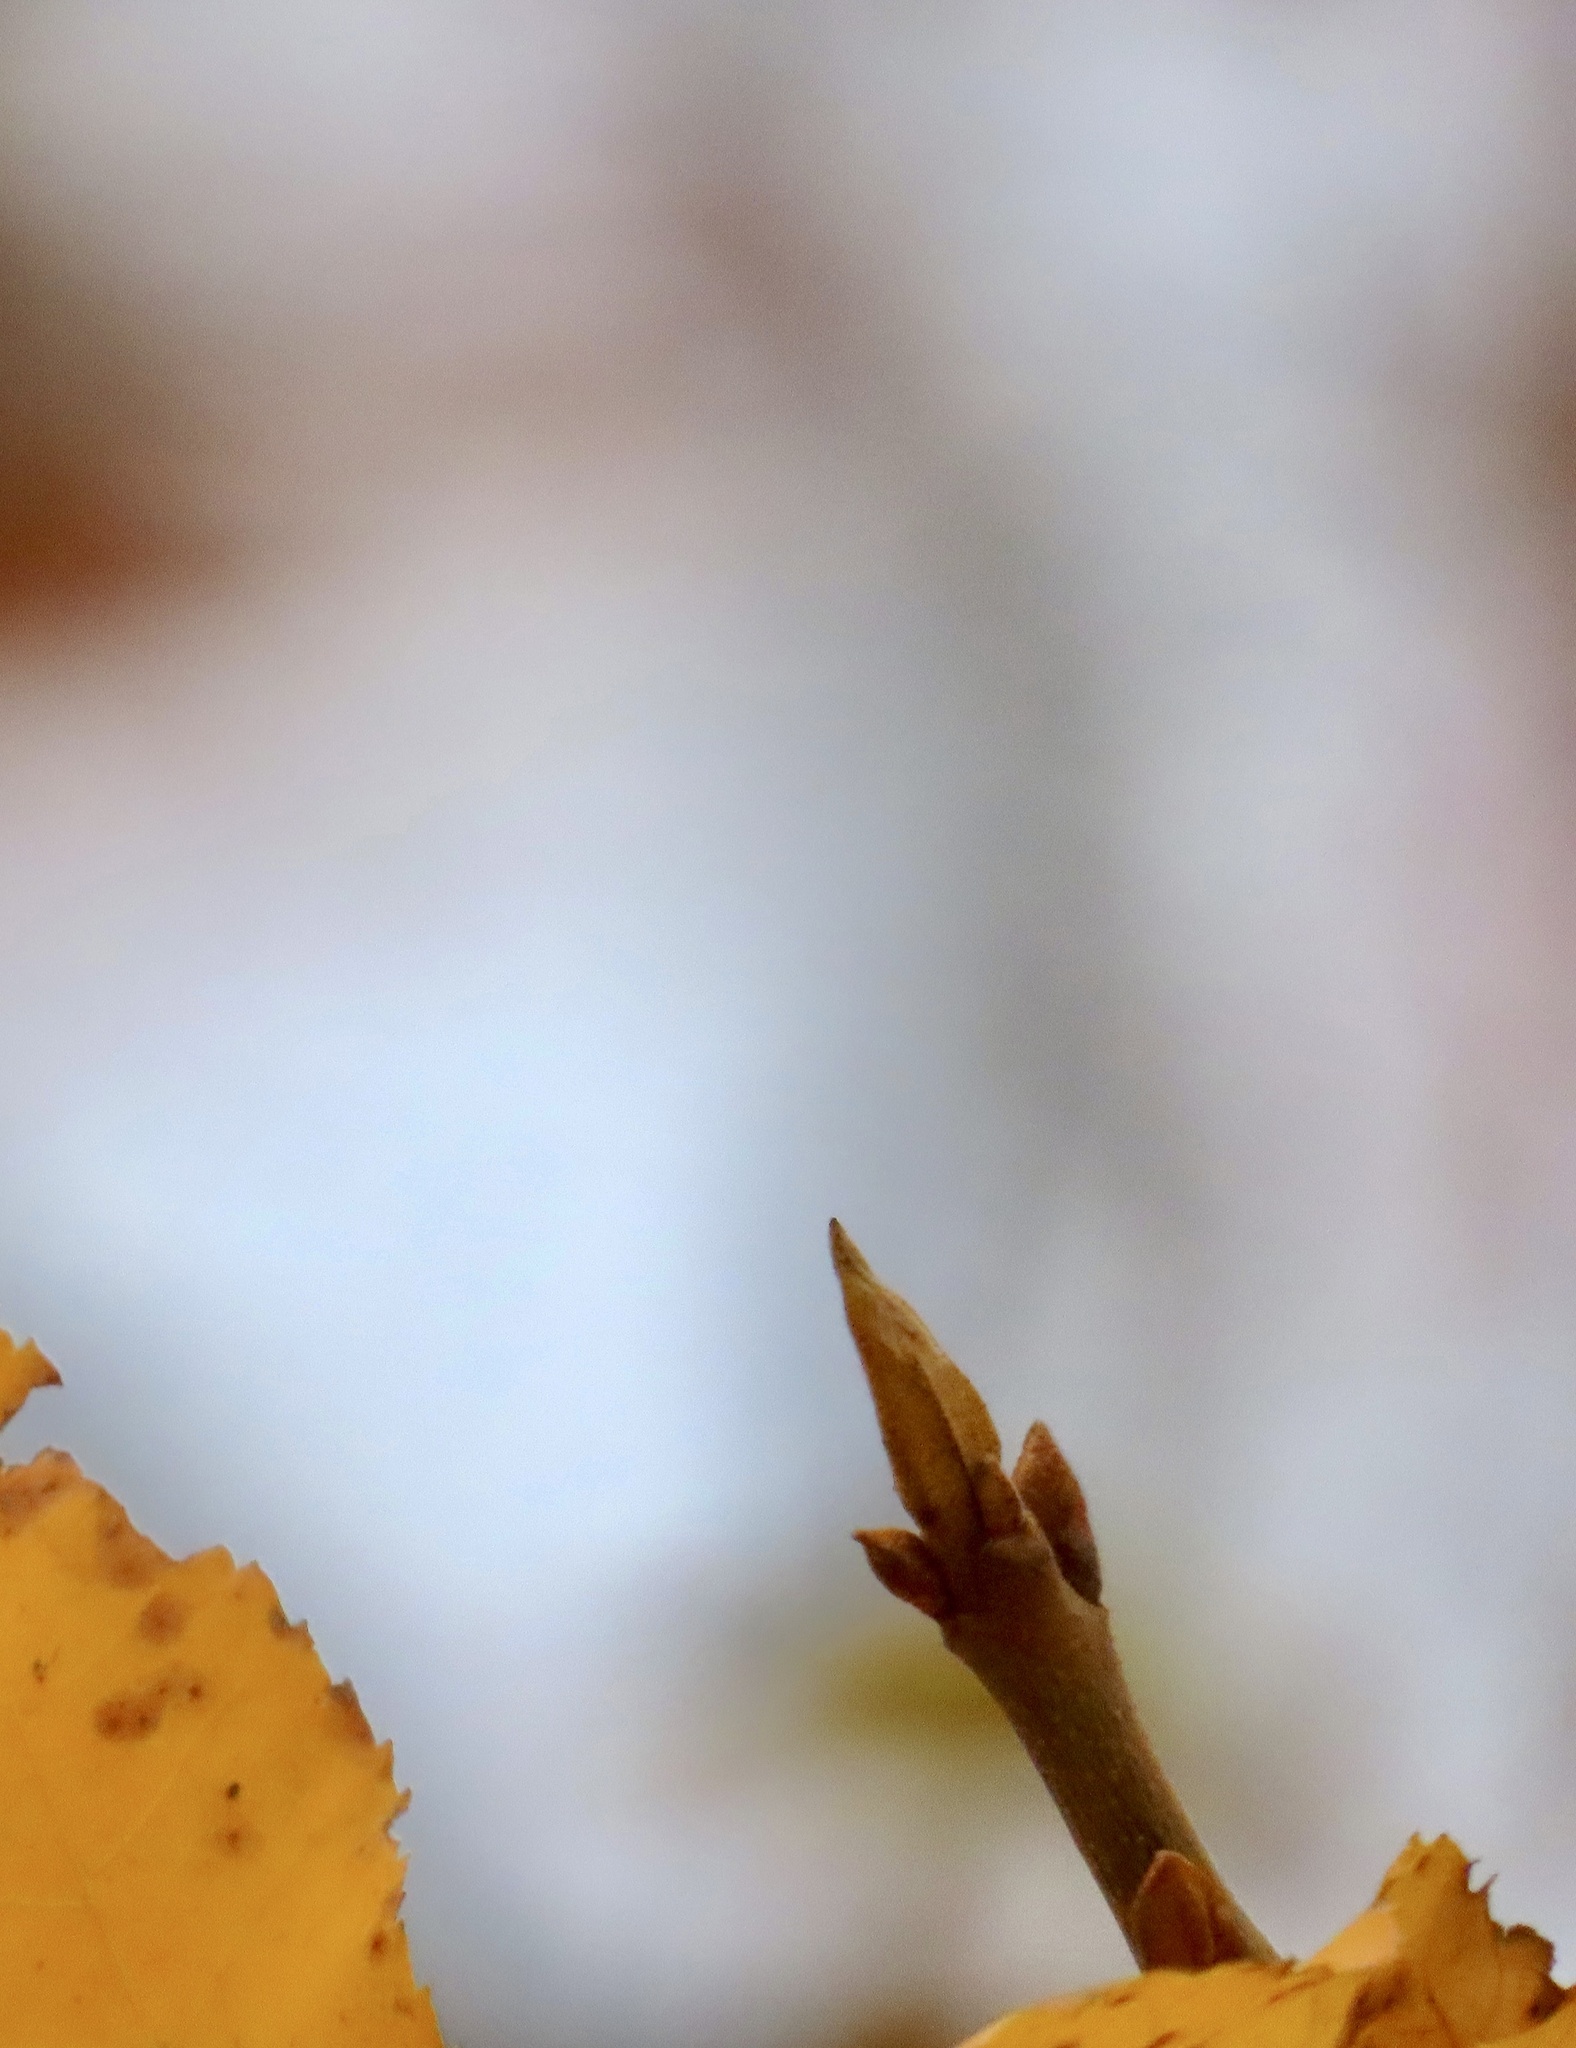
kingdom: Plantae
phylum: Tracheophyta
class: Magnoliopsida
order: Fagales
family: Juglandaceae
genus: Carya
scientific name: Carya cordiformis
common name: Bitternut hickory
